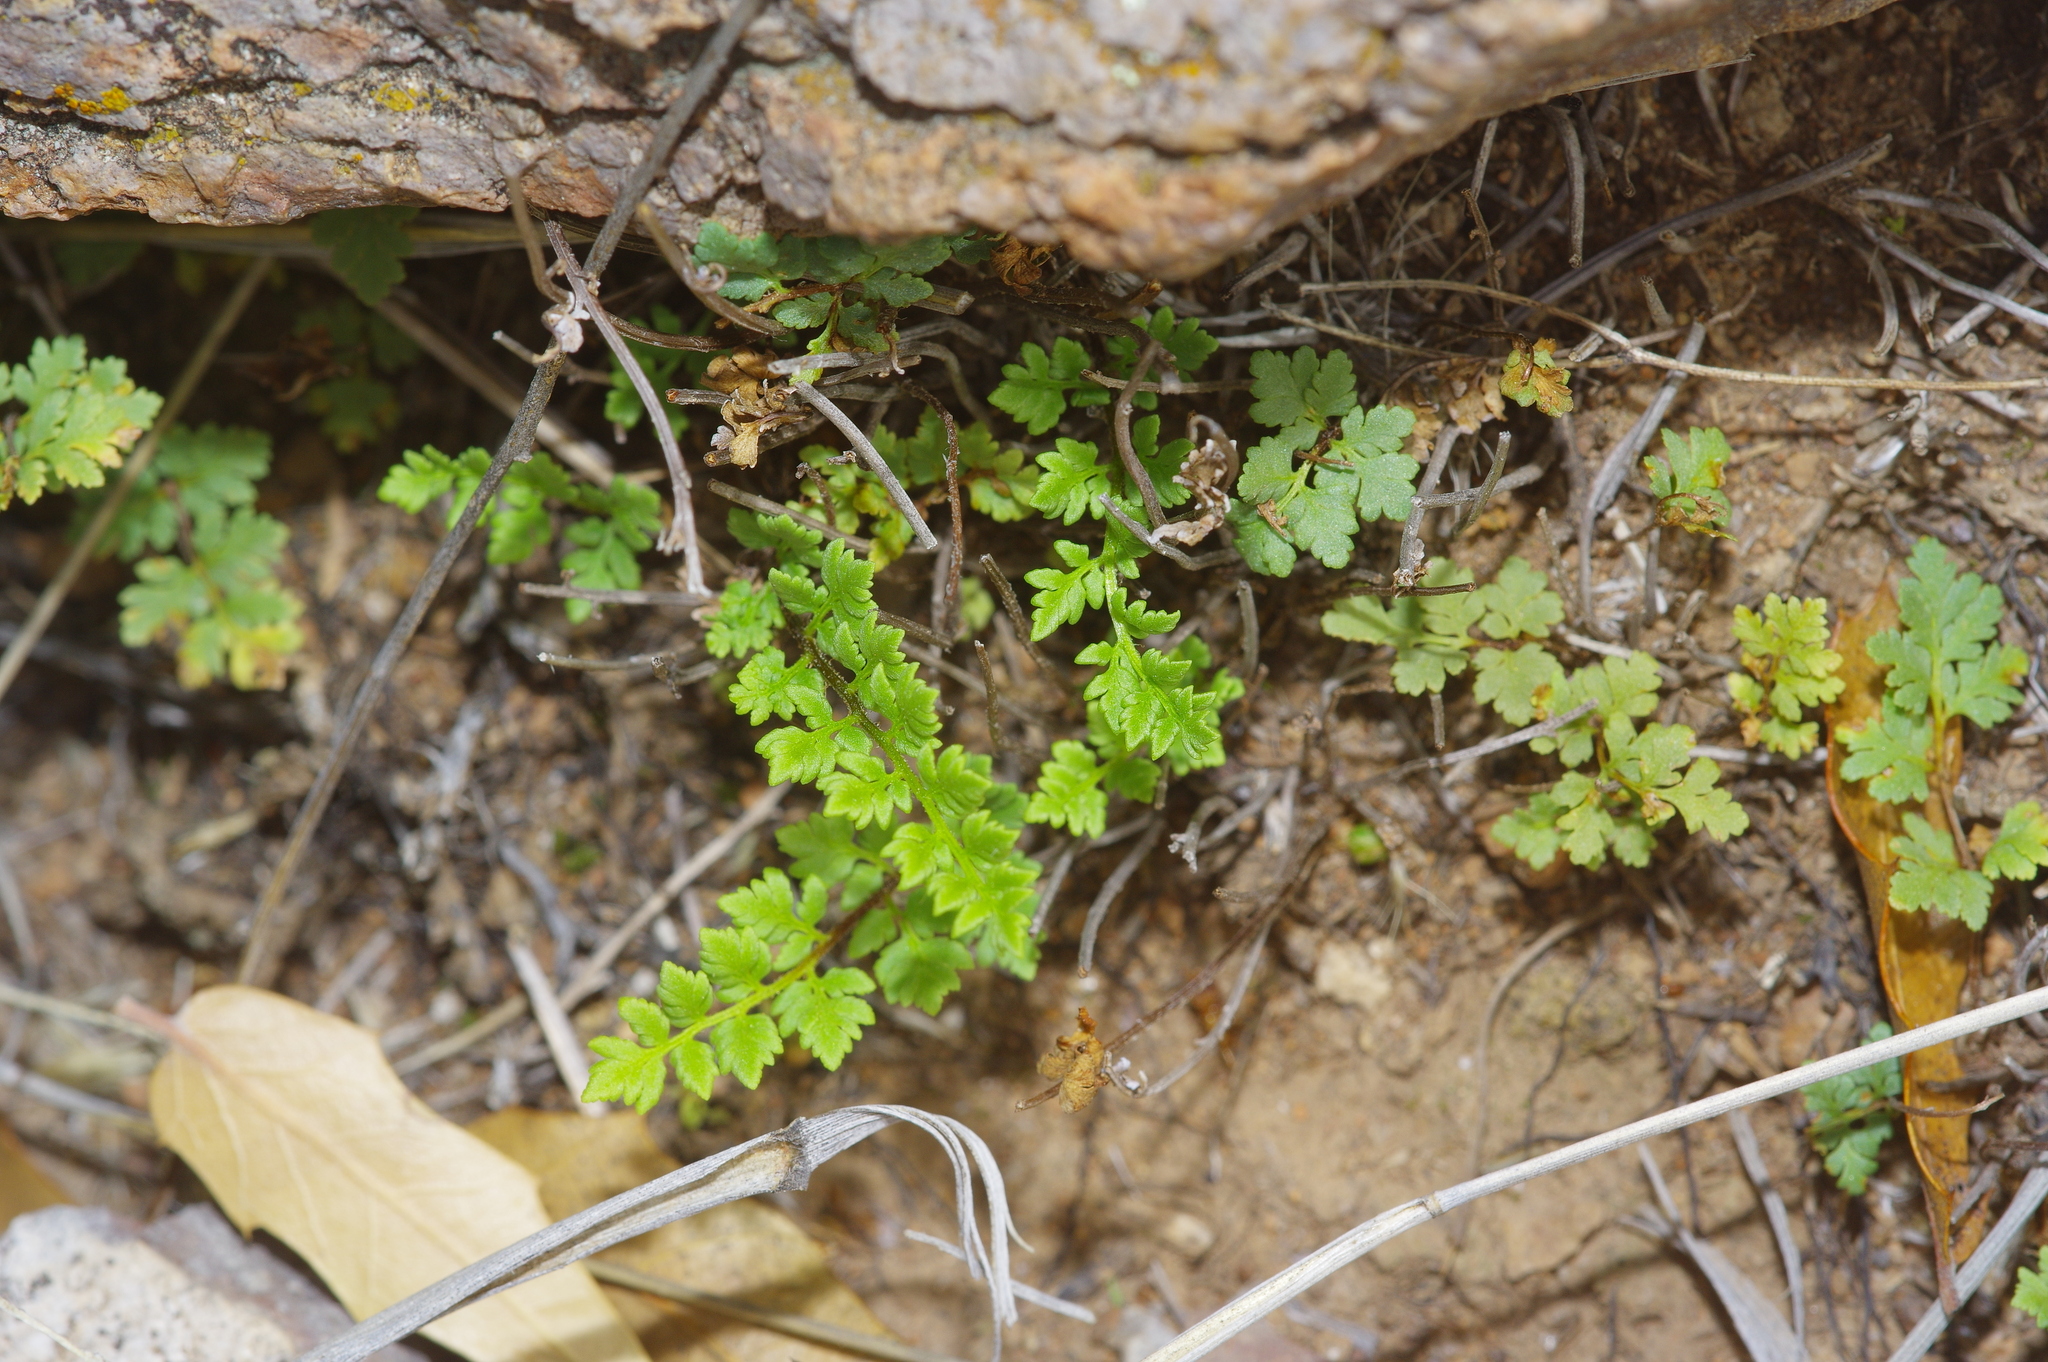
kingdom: Plantae
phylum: Tracheophyta
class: Polypodiopsida
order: Polypodiales
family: Pteridaceae
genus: Myriopteris
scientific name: Myriopteris wrightii
